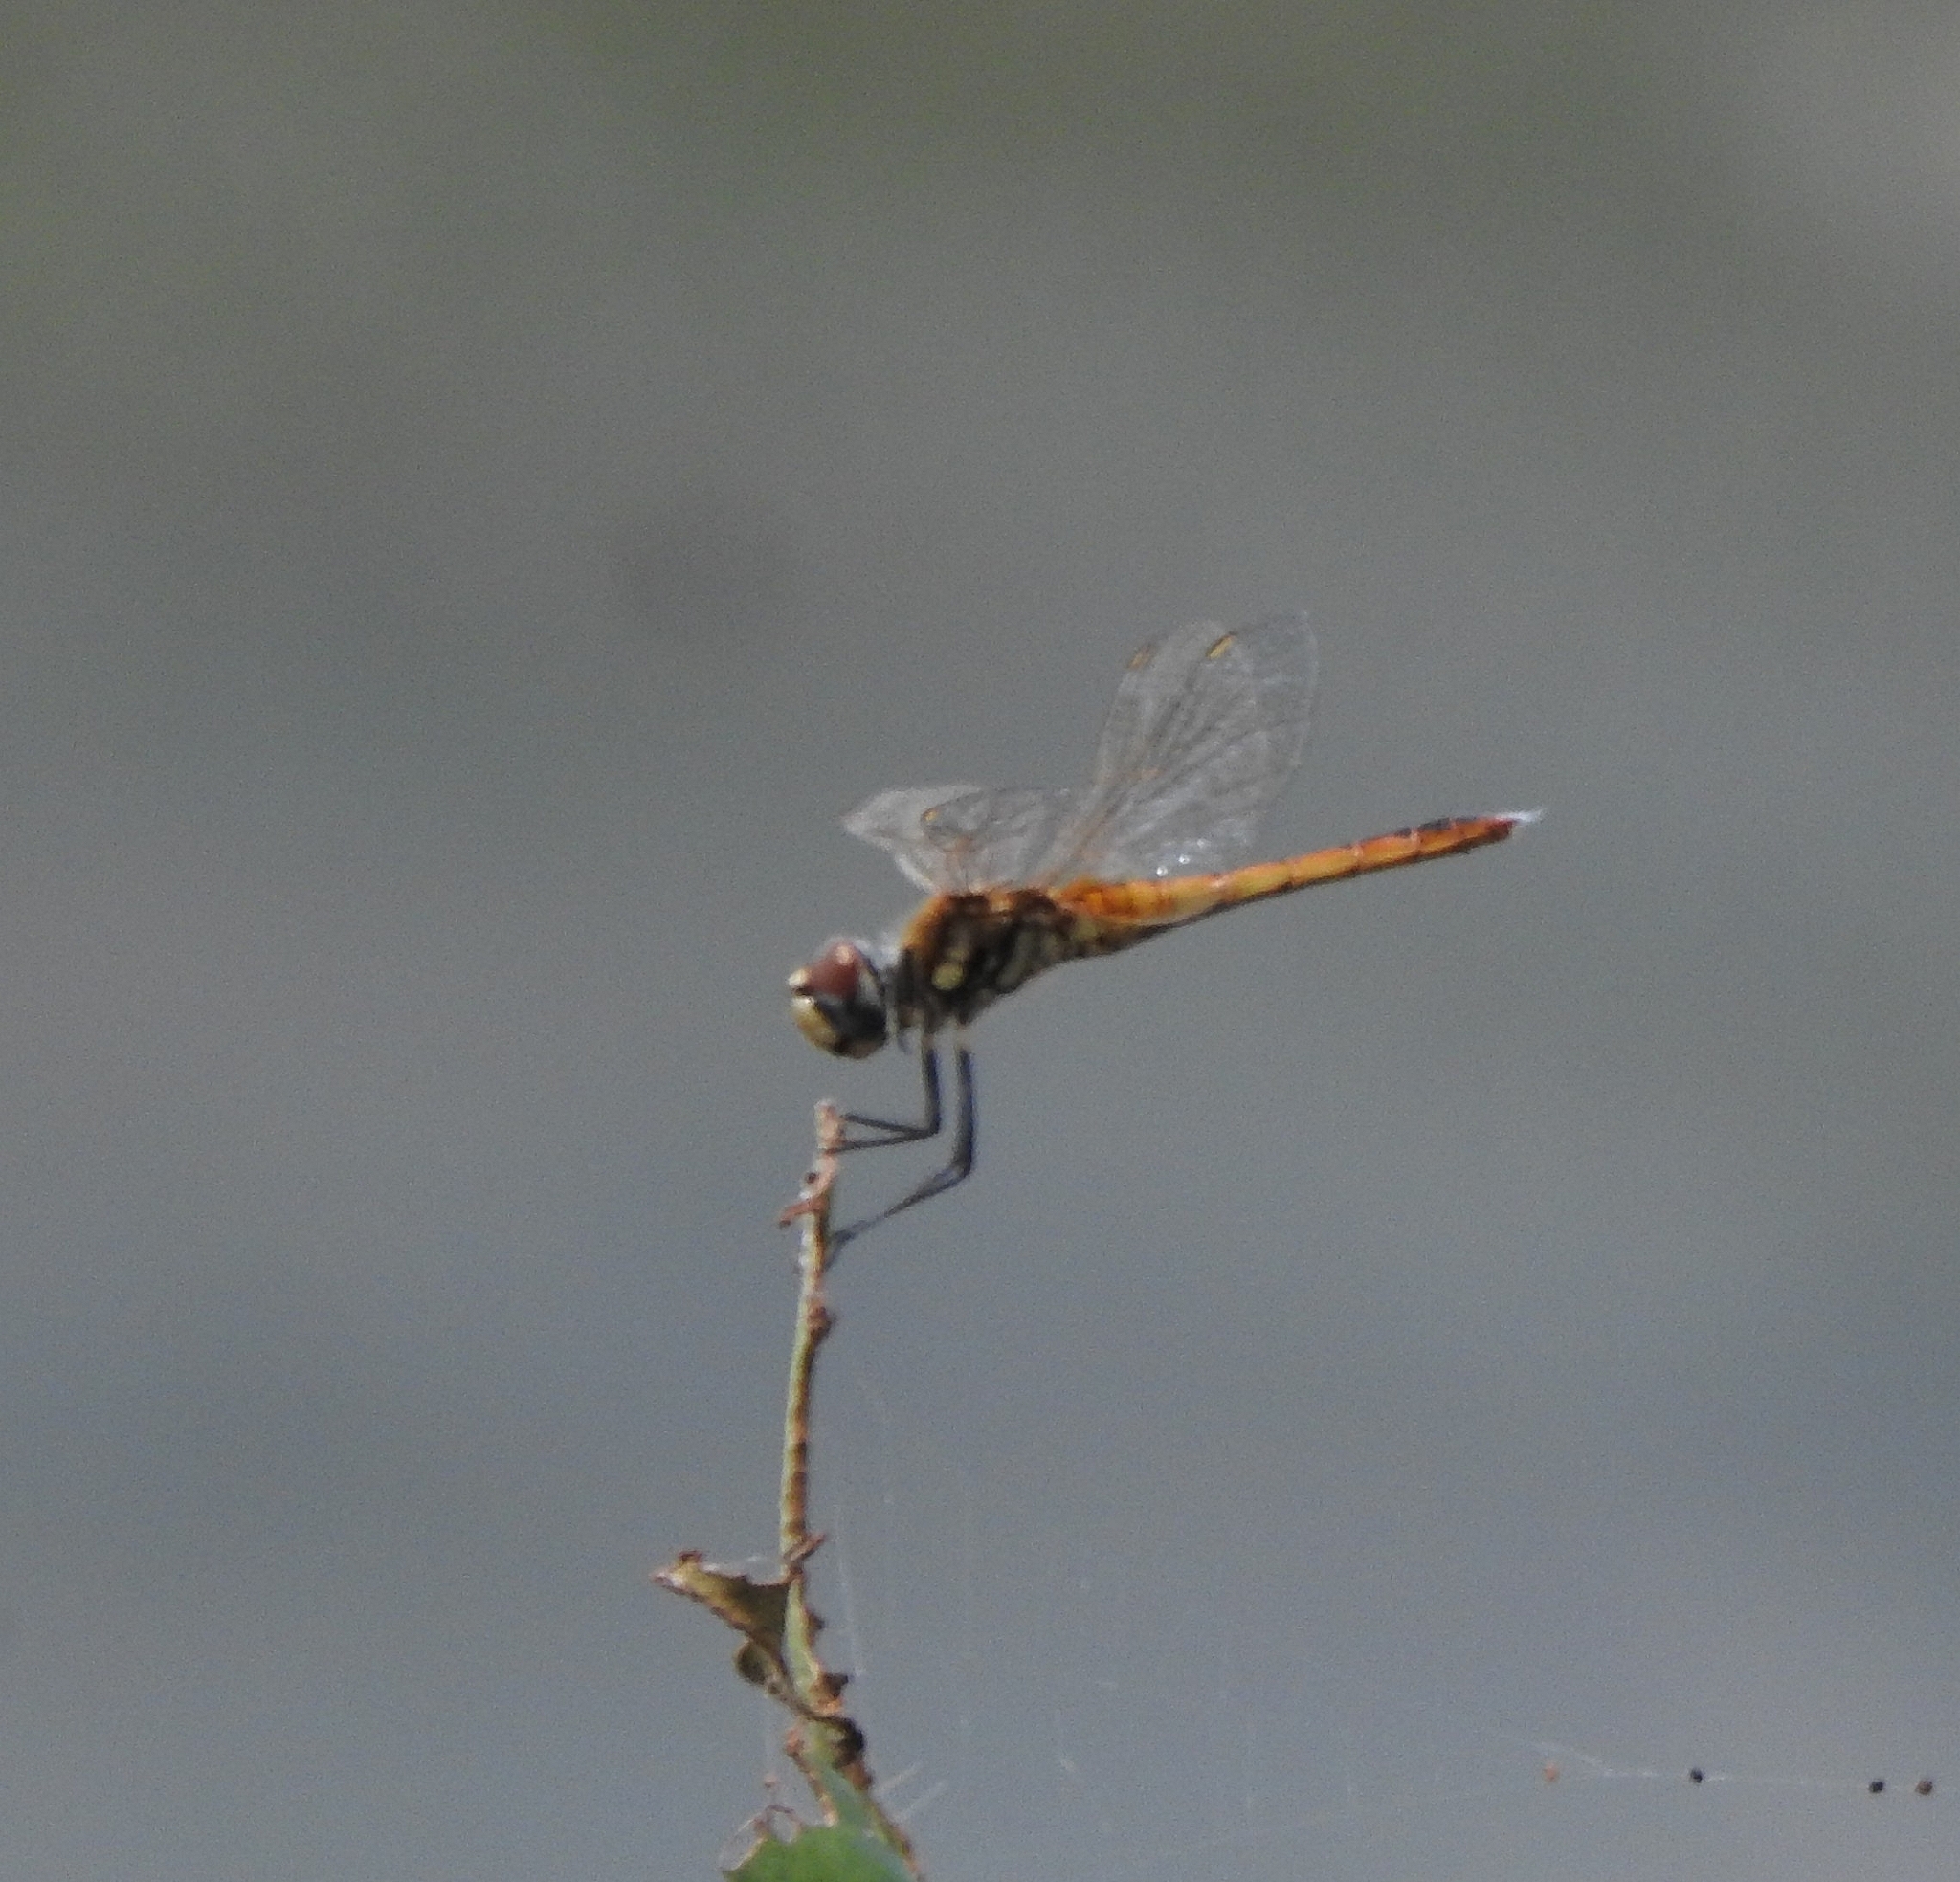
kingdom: Animalia
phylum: Arthropoda
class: Insecta
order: Odonata
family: Libellulidae
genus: Macrodiplax
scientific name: Macrodiplax cora
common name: Coastal glider
